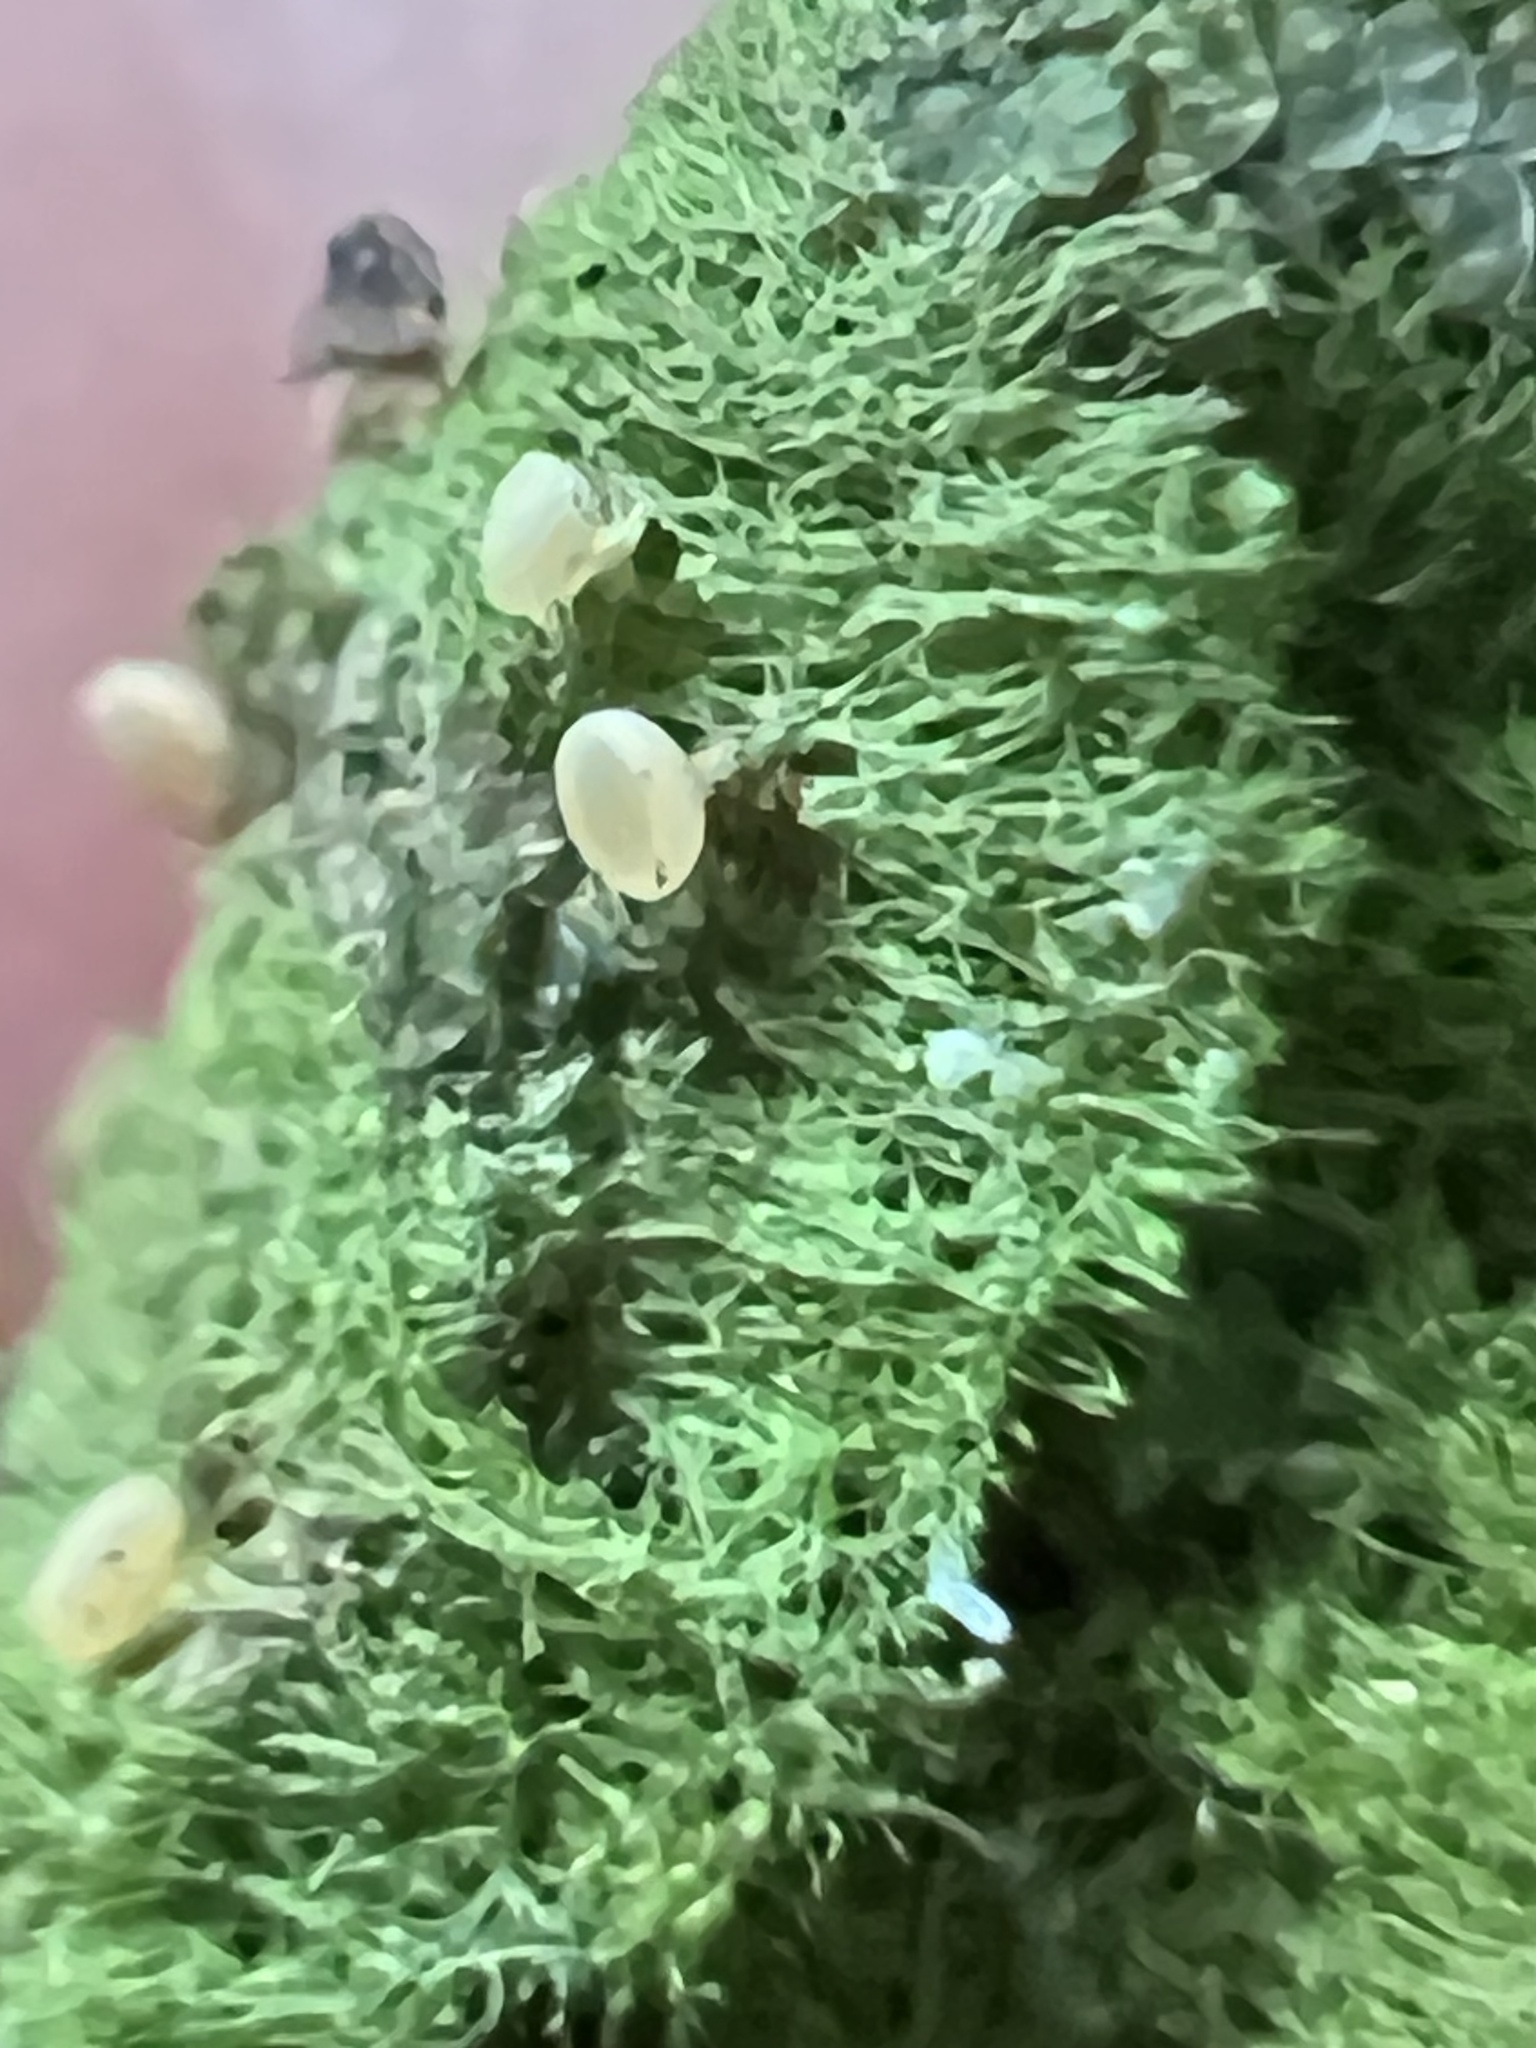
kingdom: Fungi
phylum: Ascomycota
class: Lecanoromycetes
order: Ostropales
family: Coenogoniaceae
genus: Coenogonium
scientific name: Coenogonium implexum
